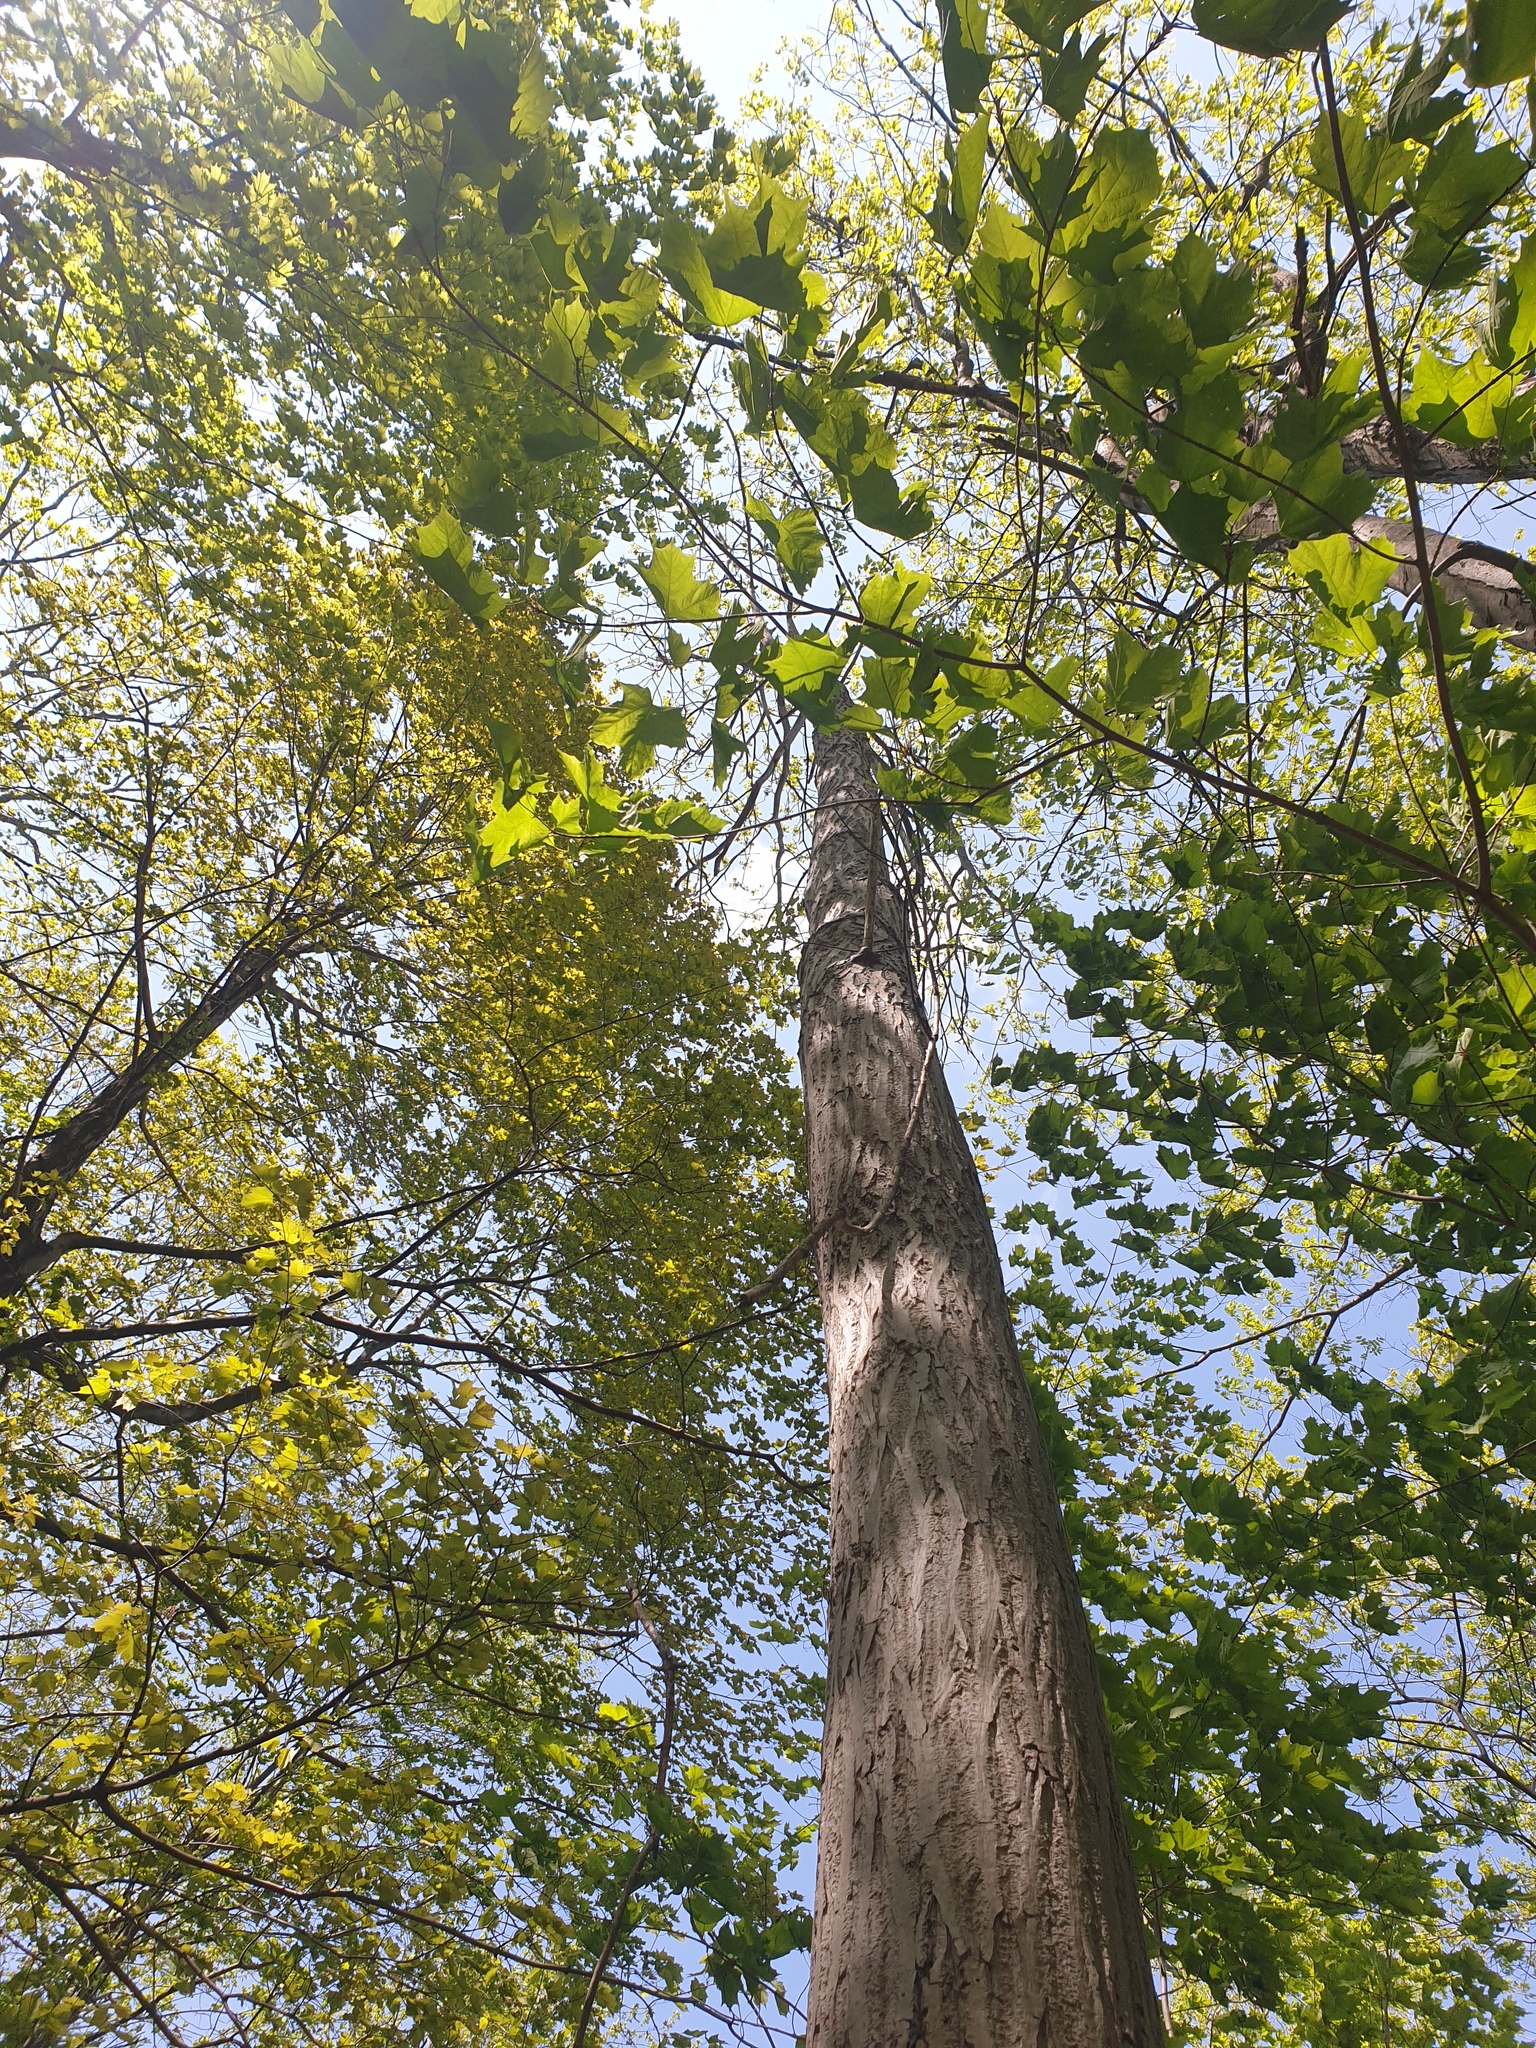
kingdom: Plantae
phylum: Tracheophyta
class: Magnoliopsida
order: Fagales
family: Juglandaceae
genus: Juglans
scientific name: Juglans cinerea
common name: Butternut
